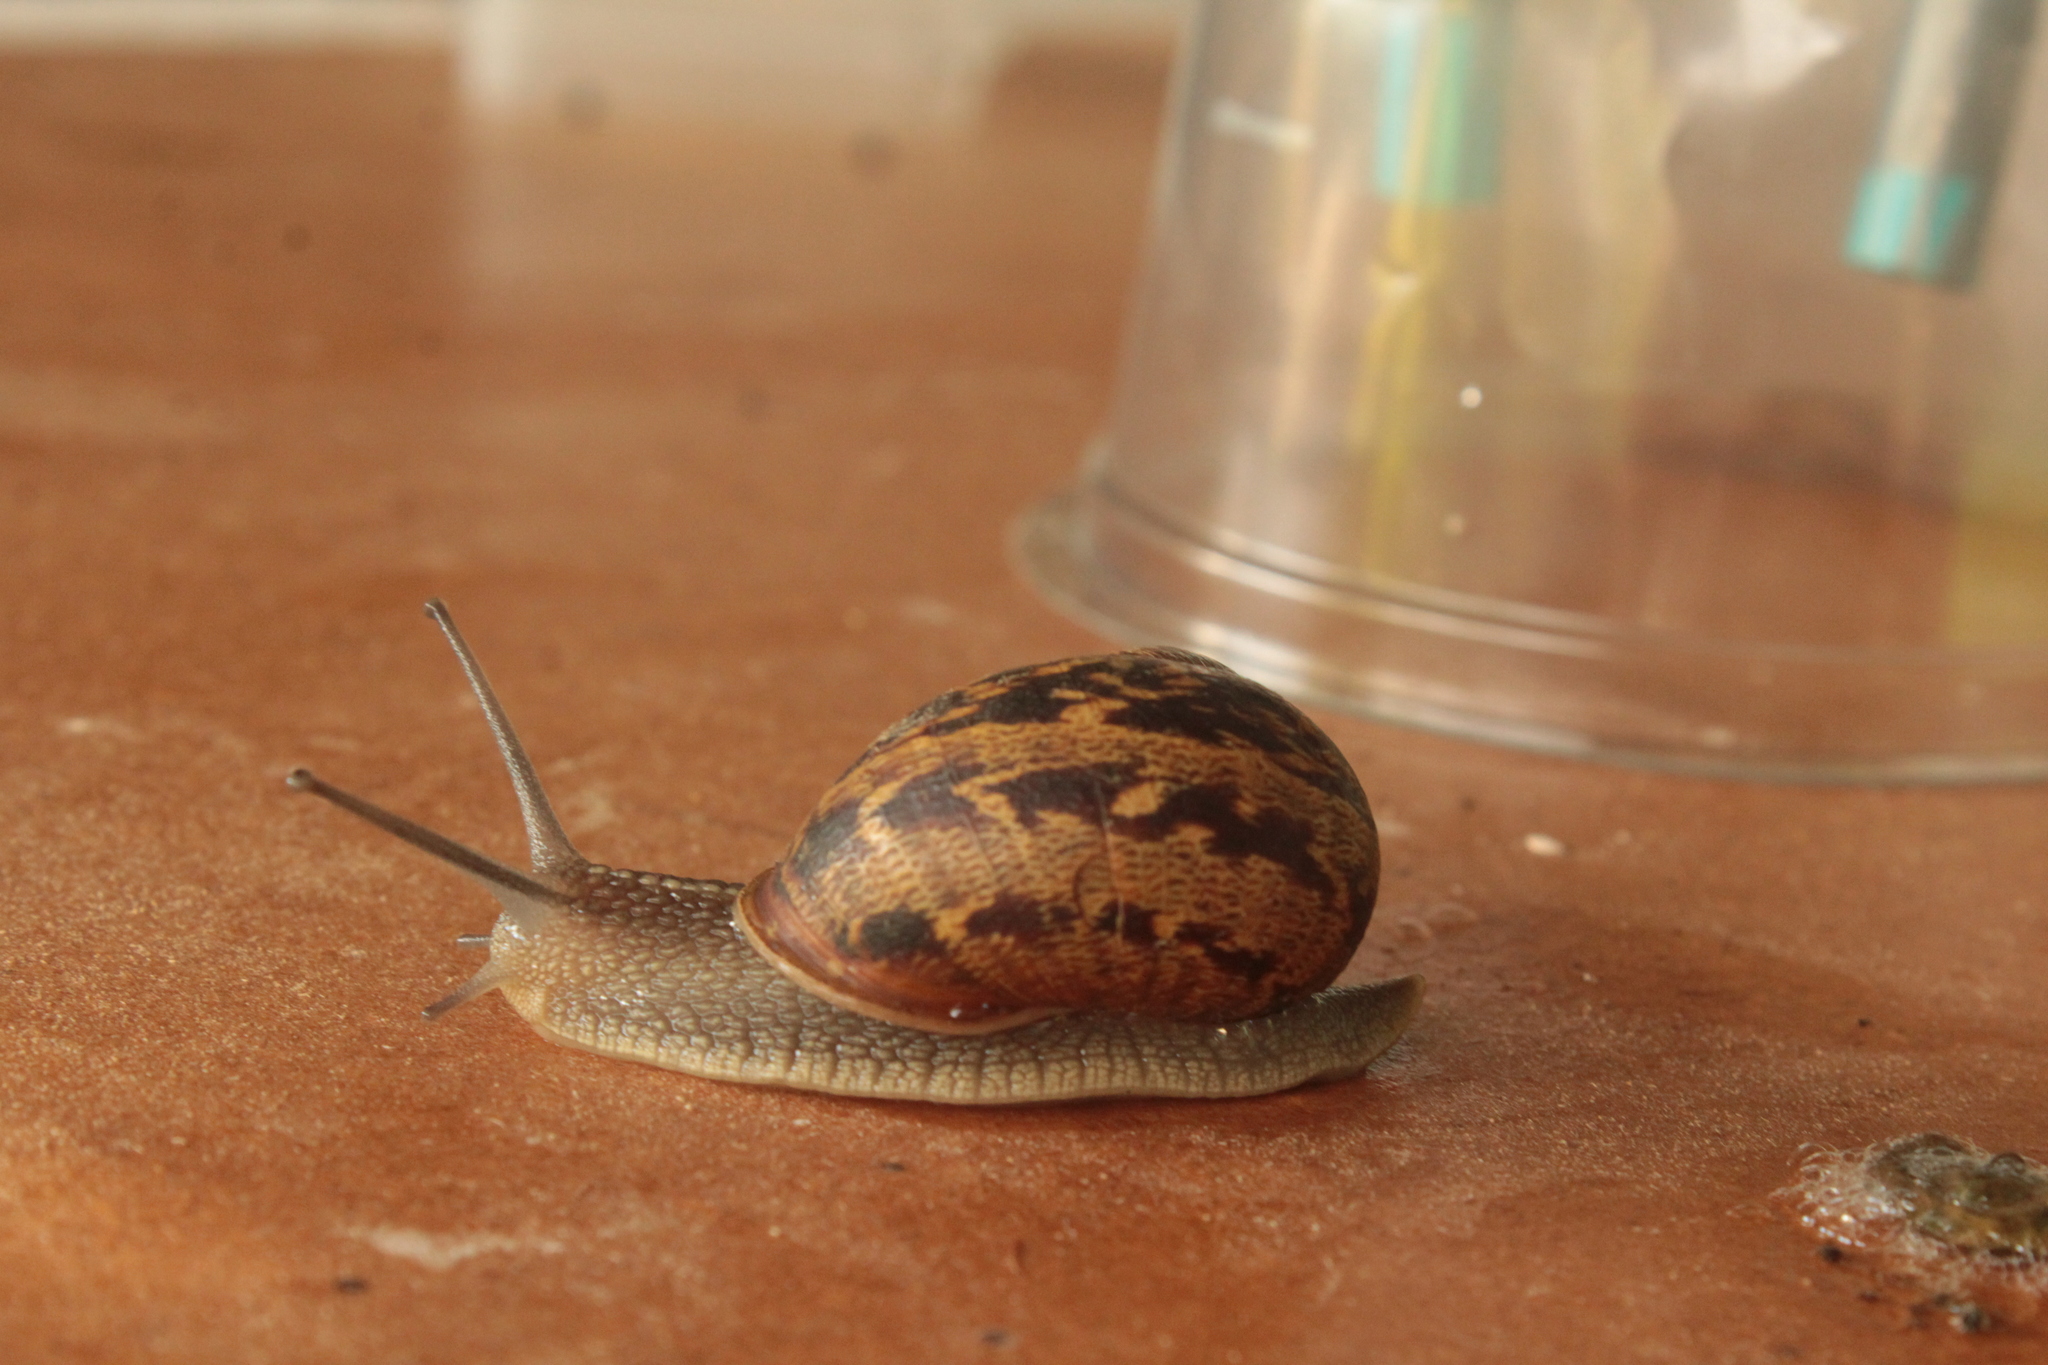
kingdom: Animalia
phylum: Mollusca
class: Gastropoda
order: Stylommatophora
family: Helicidae
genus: Cornu
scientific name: Cornu aspersum
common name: Brown garden snail
